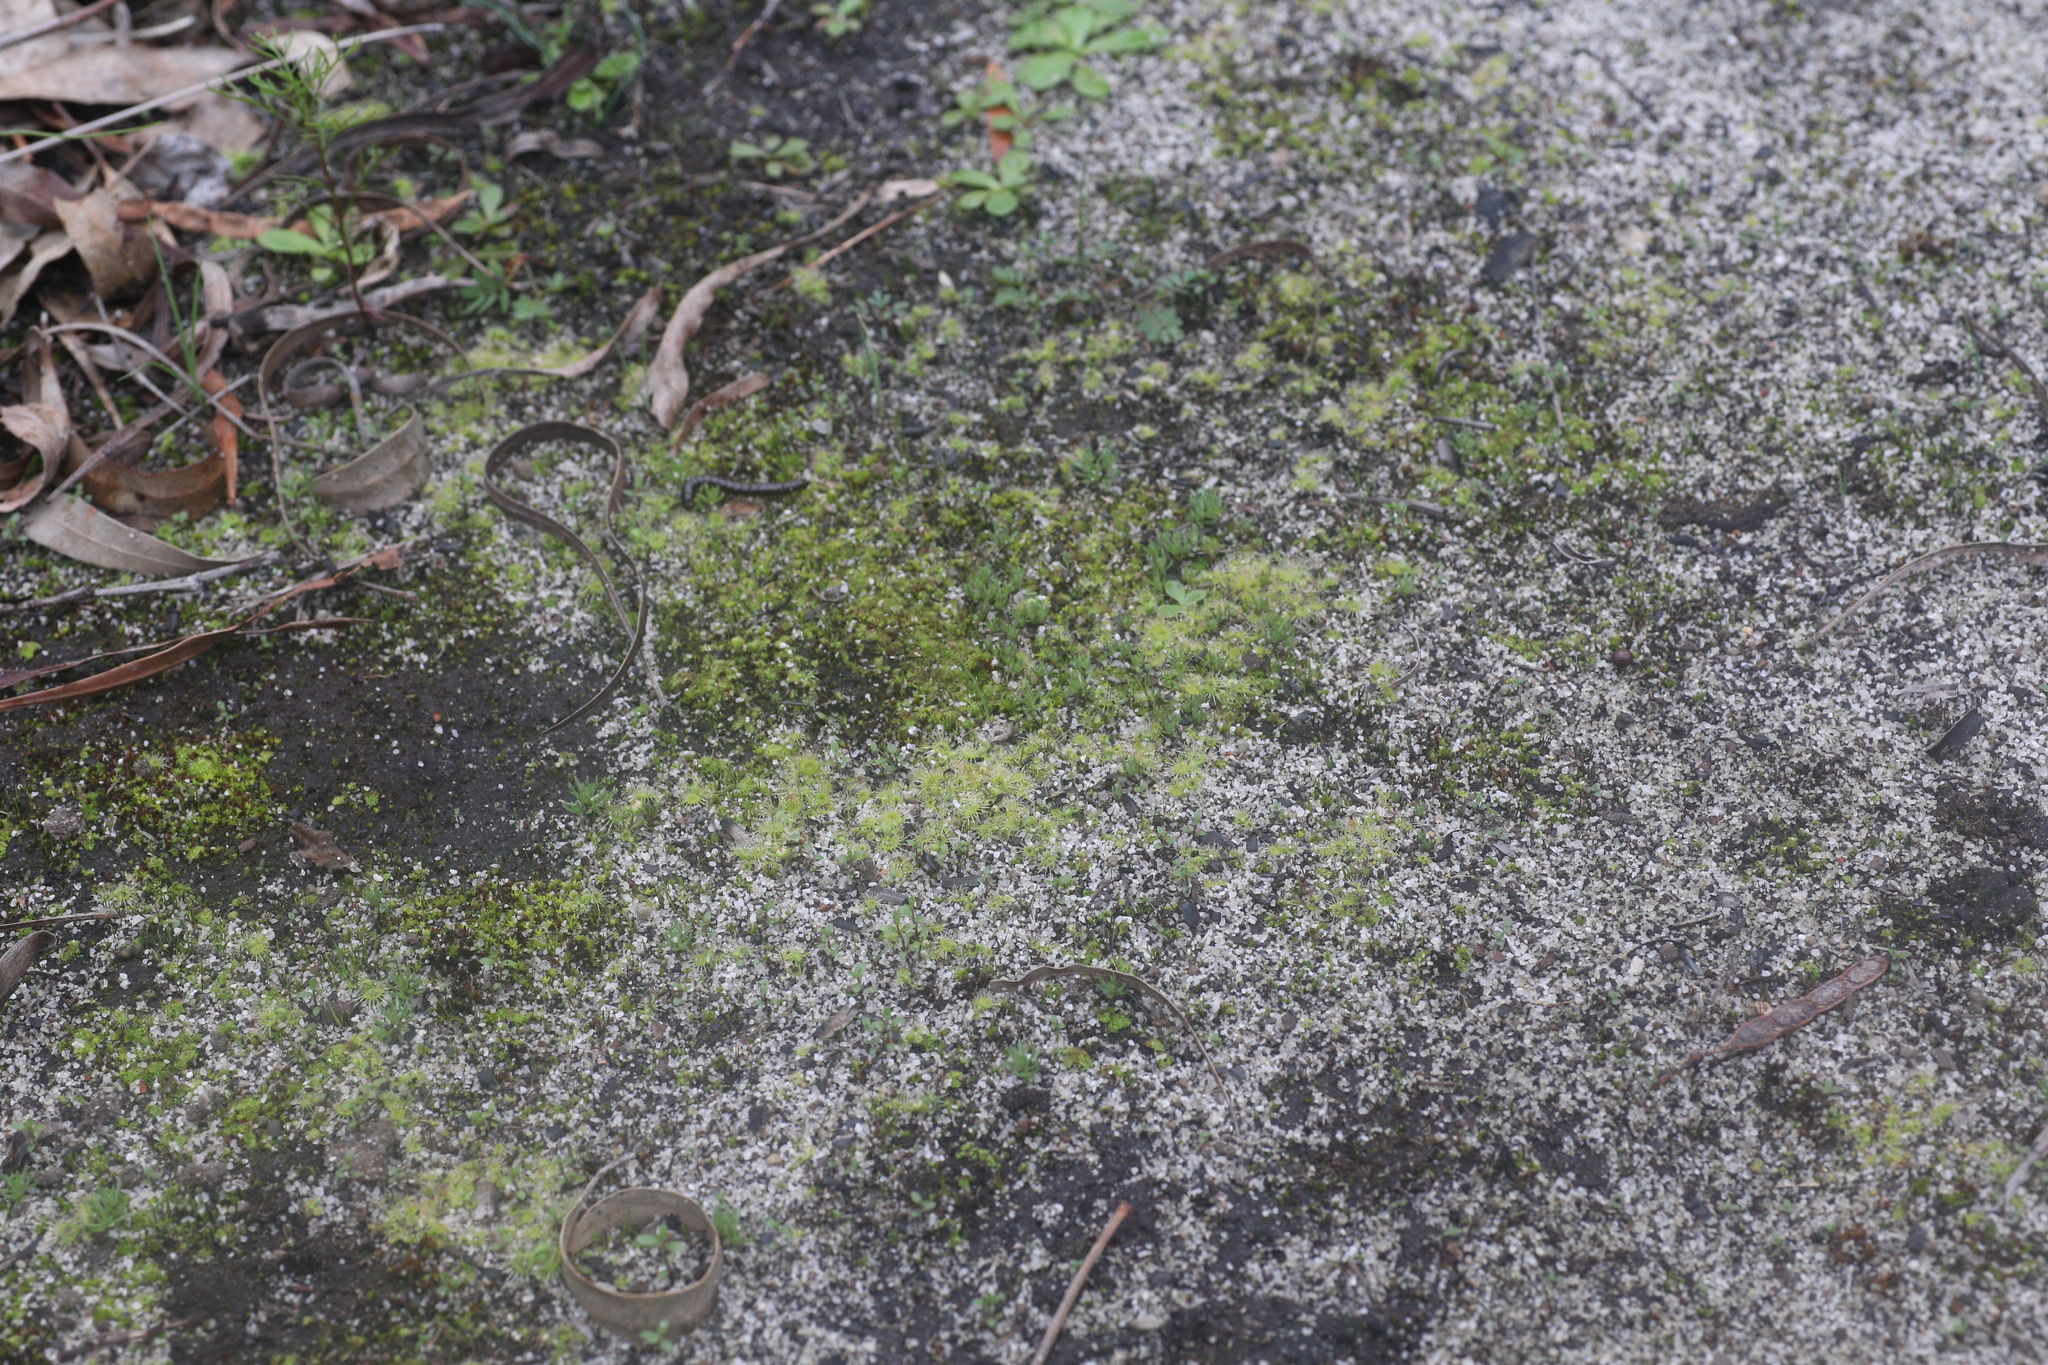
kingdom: Plantae
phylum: Tracheophyta
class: Magnoliopsida
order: Caryophyllales
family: Droseraceae
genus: Drosera
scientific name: Drosera glanduligera
